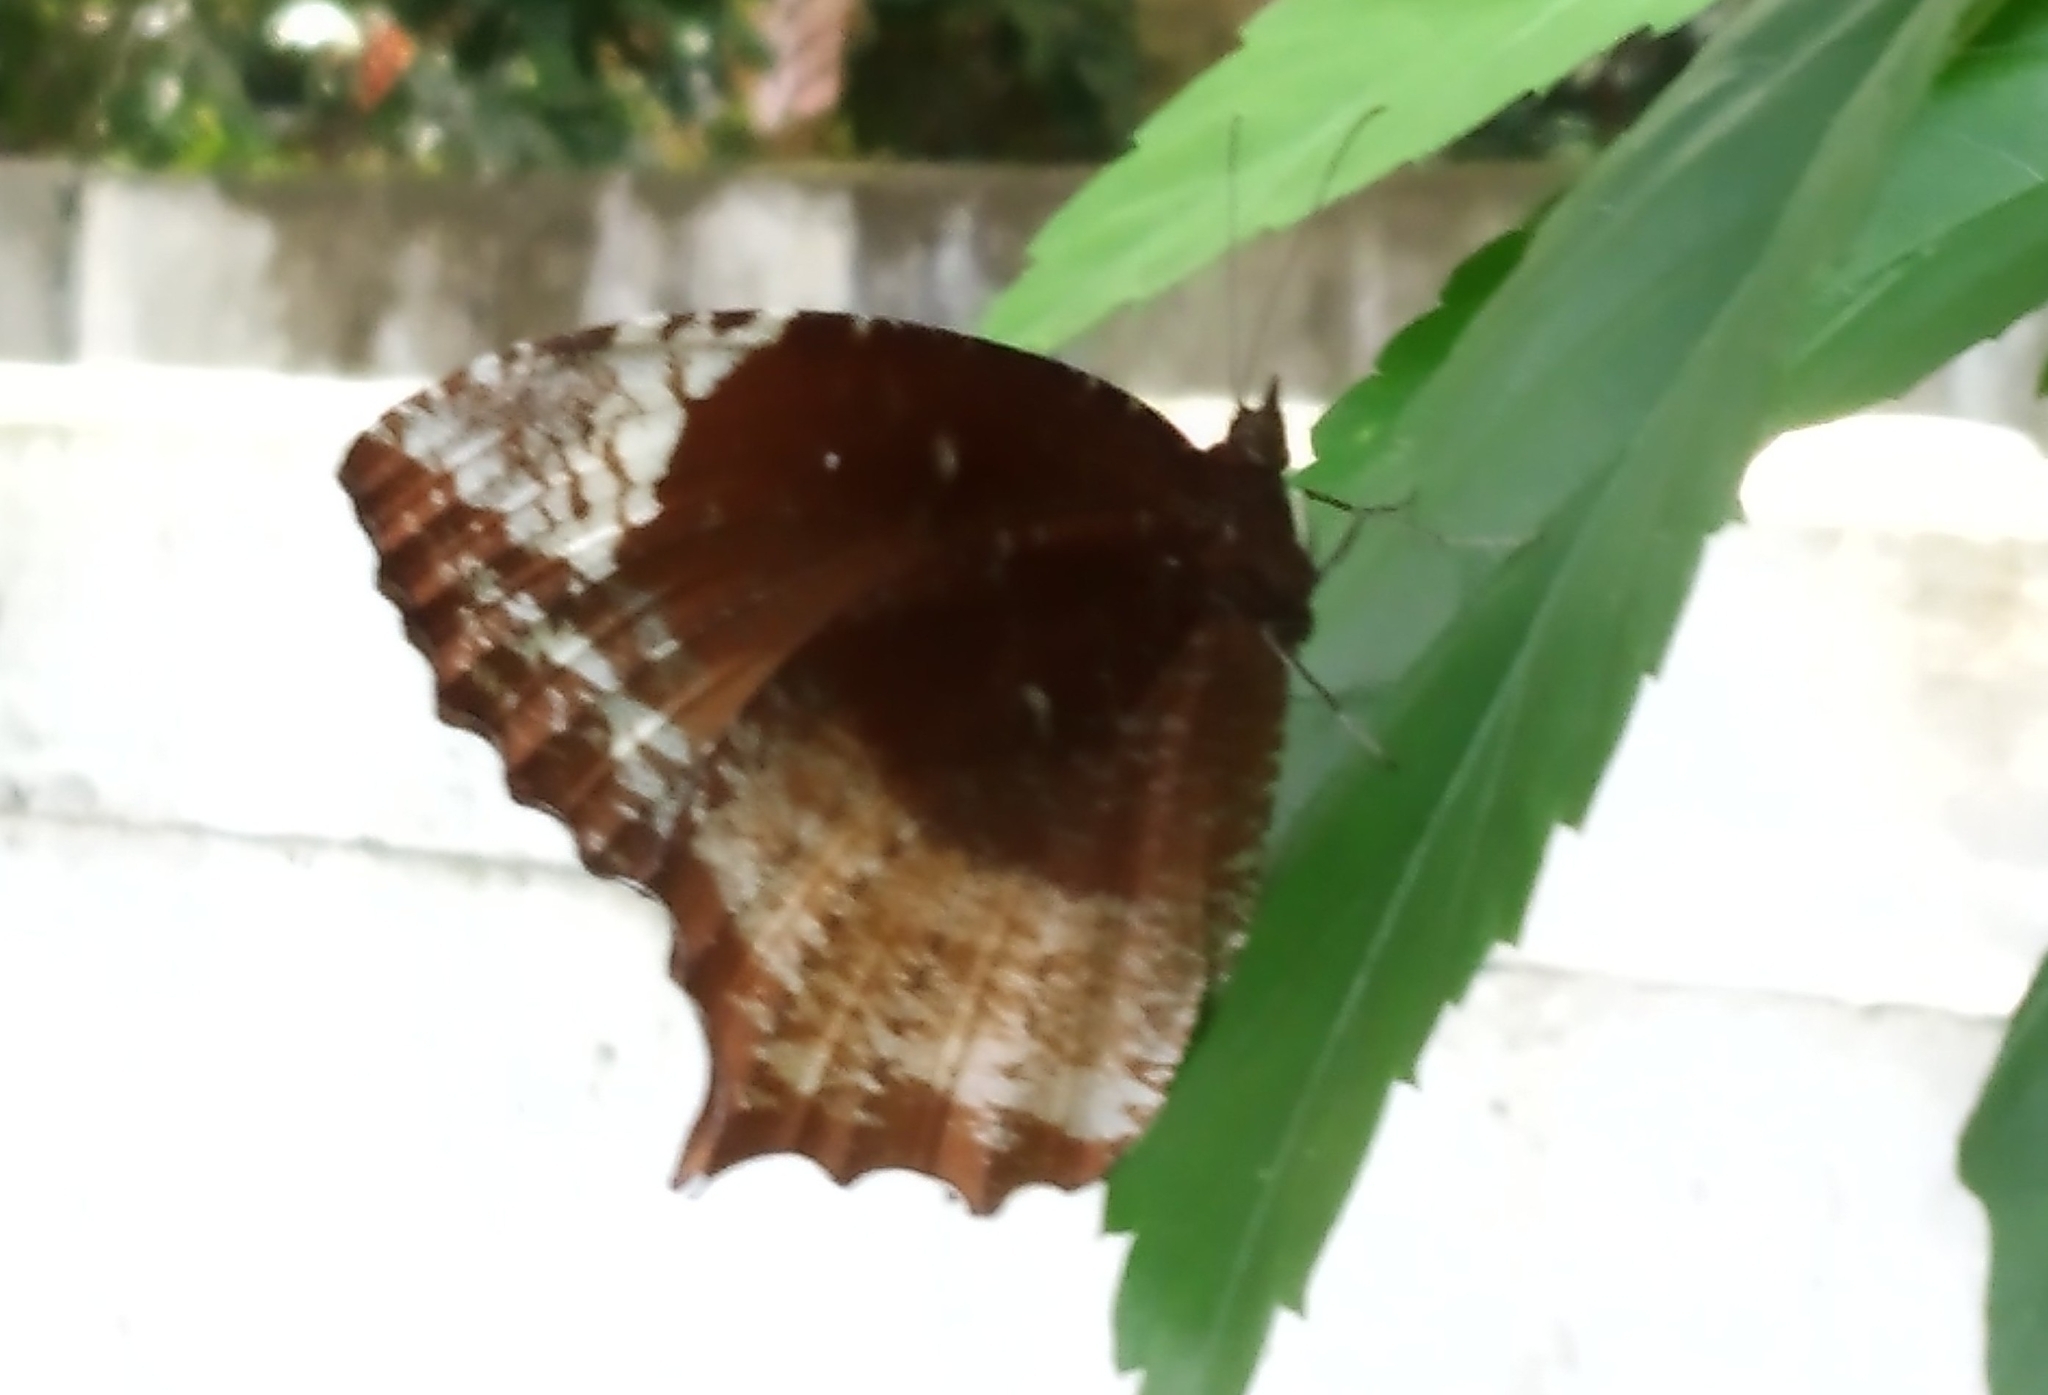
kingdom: Animalia
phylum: Arthropoda
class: Insecta
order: Lepidoptera
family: Nymphalidae
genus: Elymnias
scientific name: Elymnias caudata
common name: Tailed palmfly
